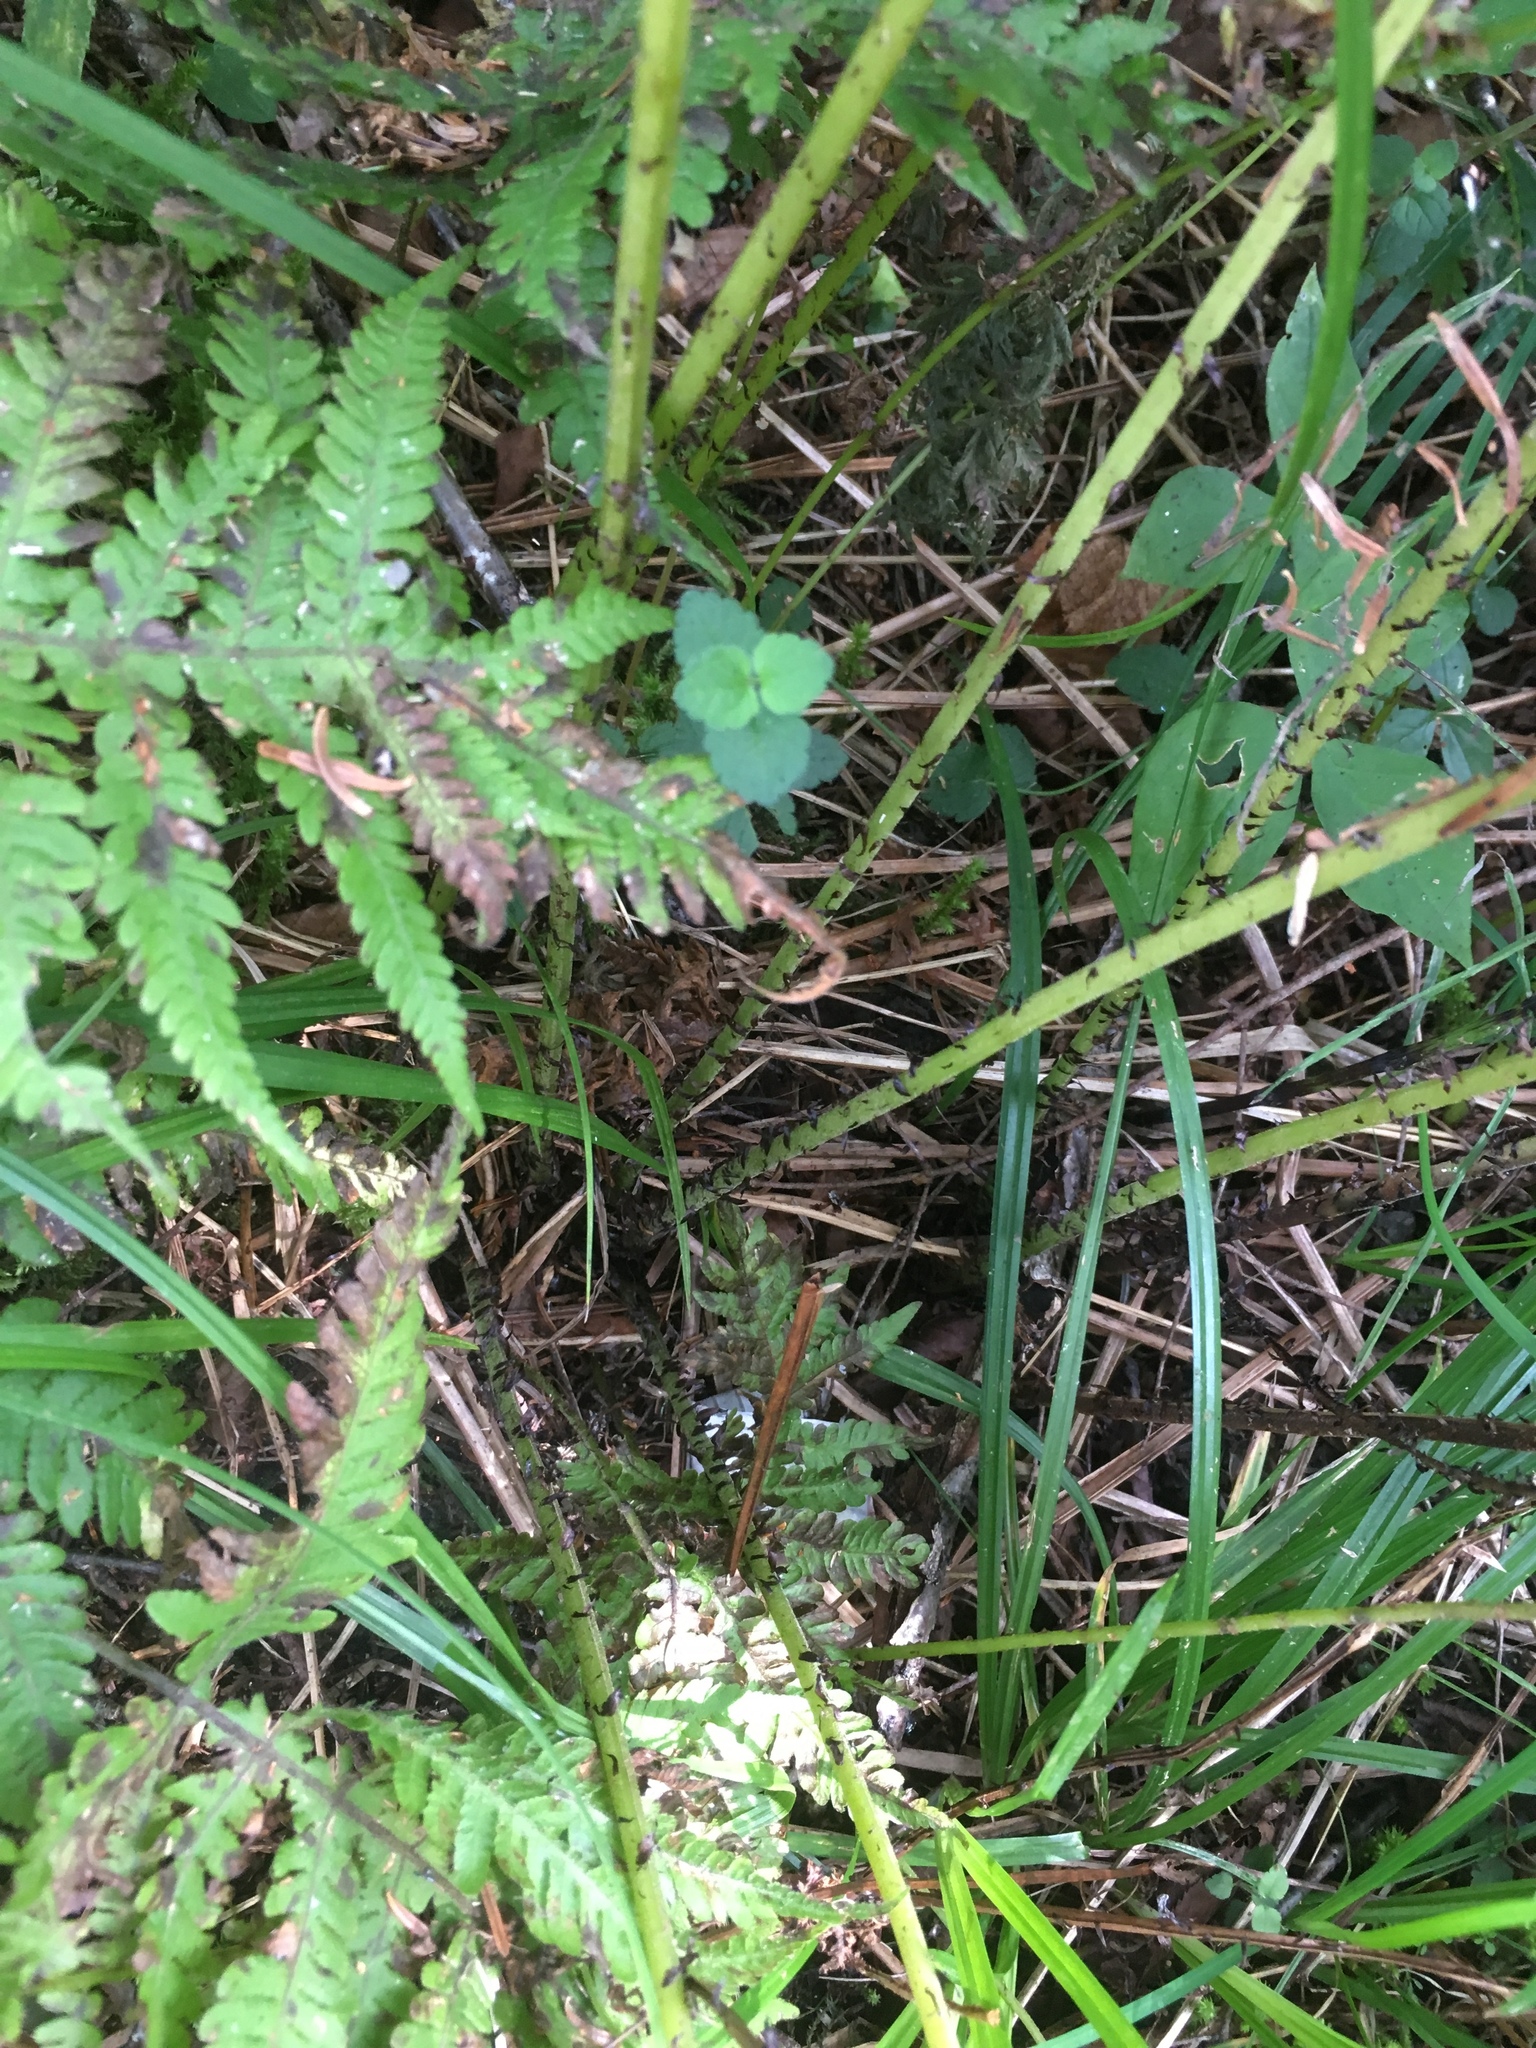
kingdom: Plantae
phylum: Tracheophyta
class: Polypodiopsida
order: Polypodiales
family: Athyriaceae
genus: Athyrium
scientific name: Athyrium angustum
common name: Northern lady fern
